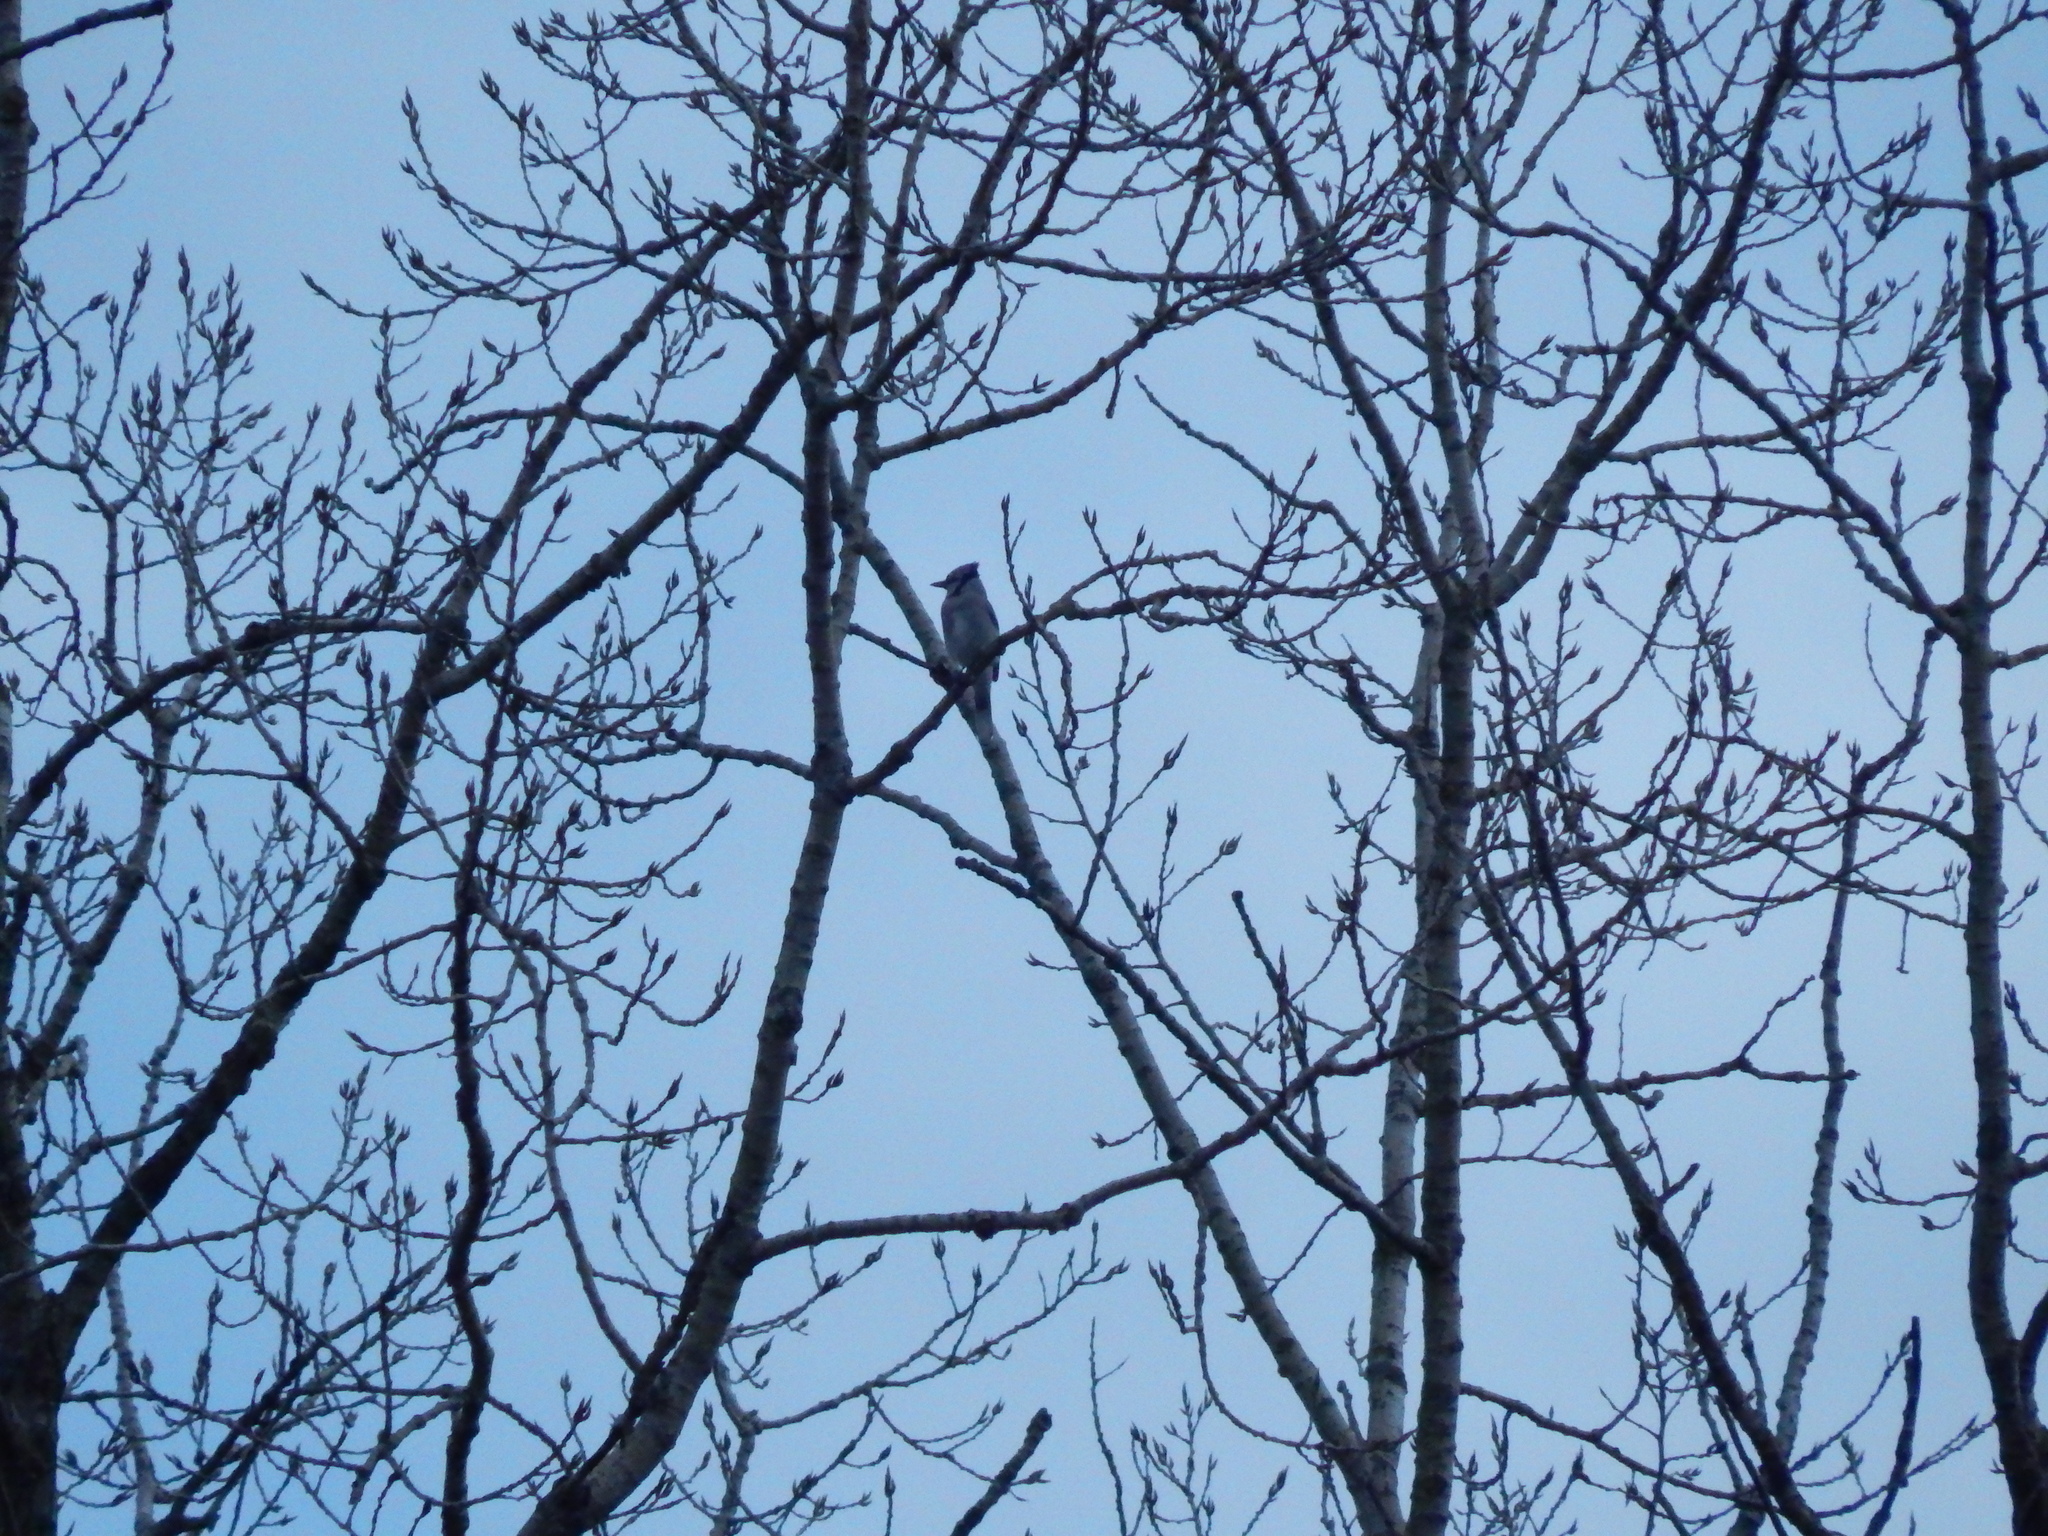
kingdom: Animalia
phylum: Chordata
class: Aves
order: Passeriformes
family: Corvidae
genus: Cyanocitta
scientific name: Cyanocitta cristata
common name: Blue jay
